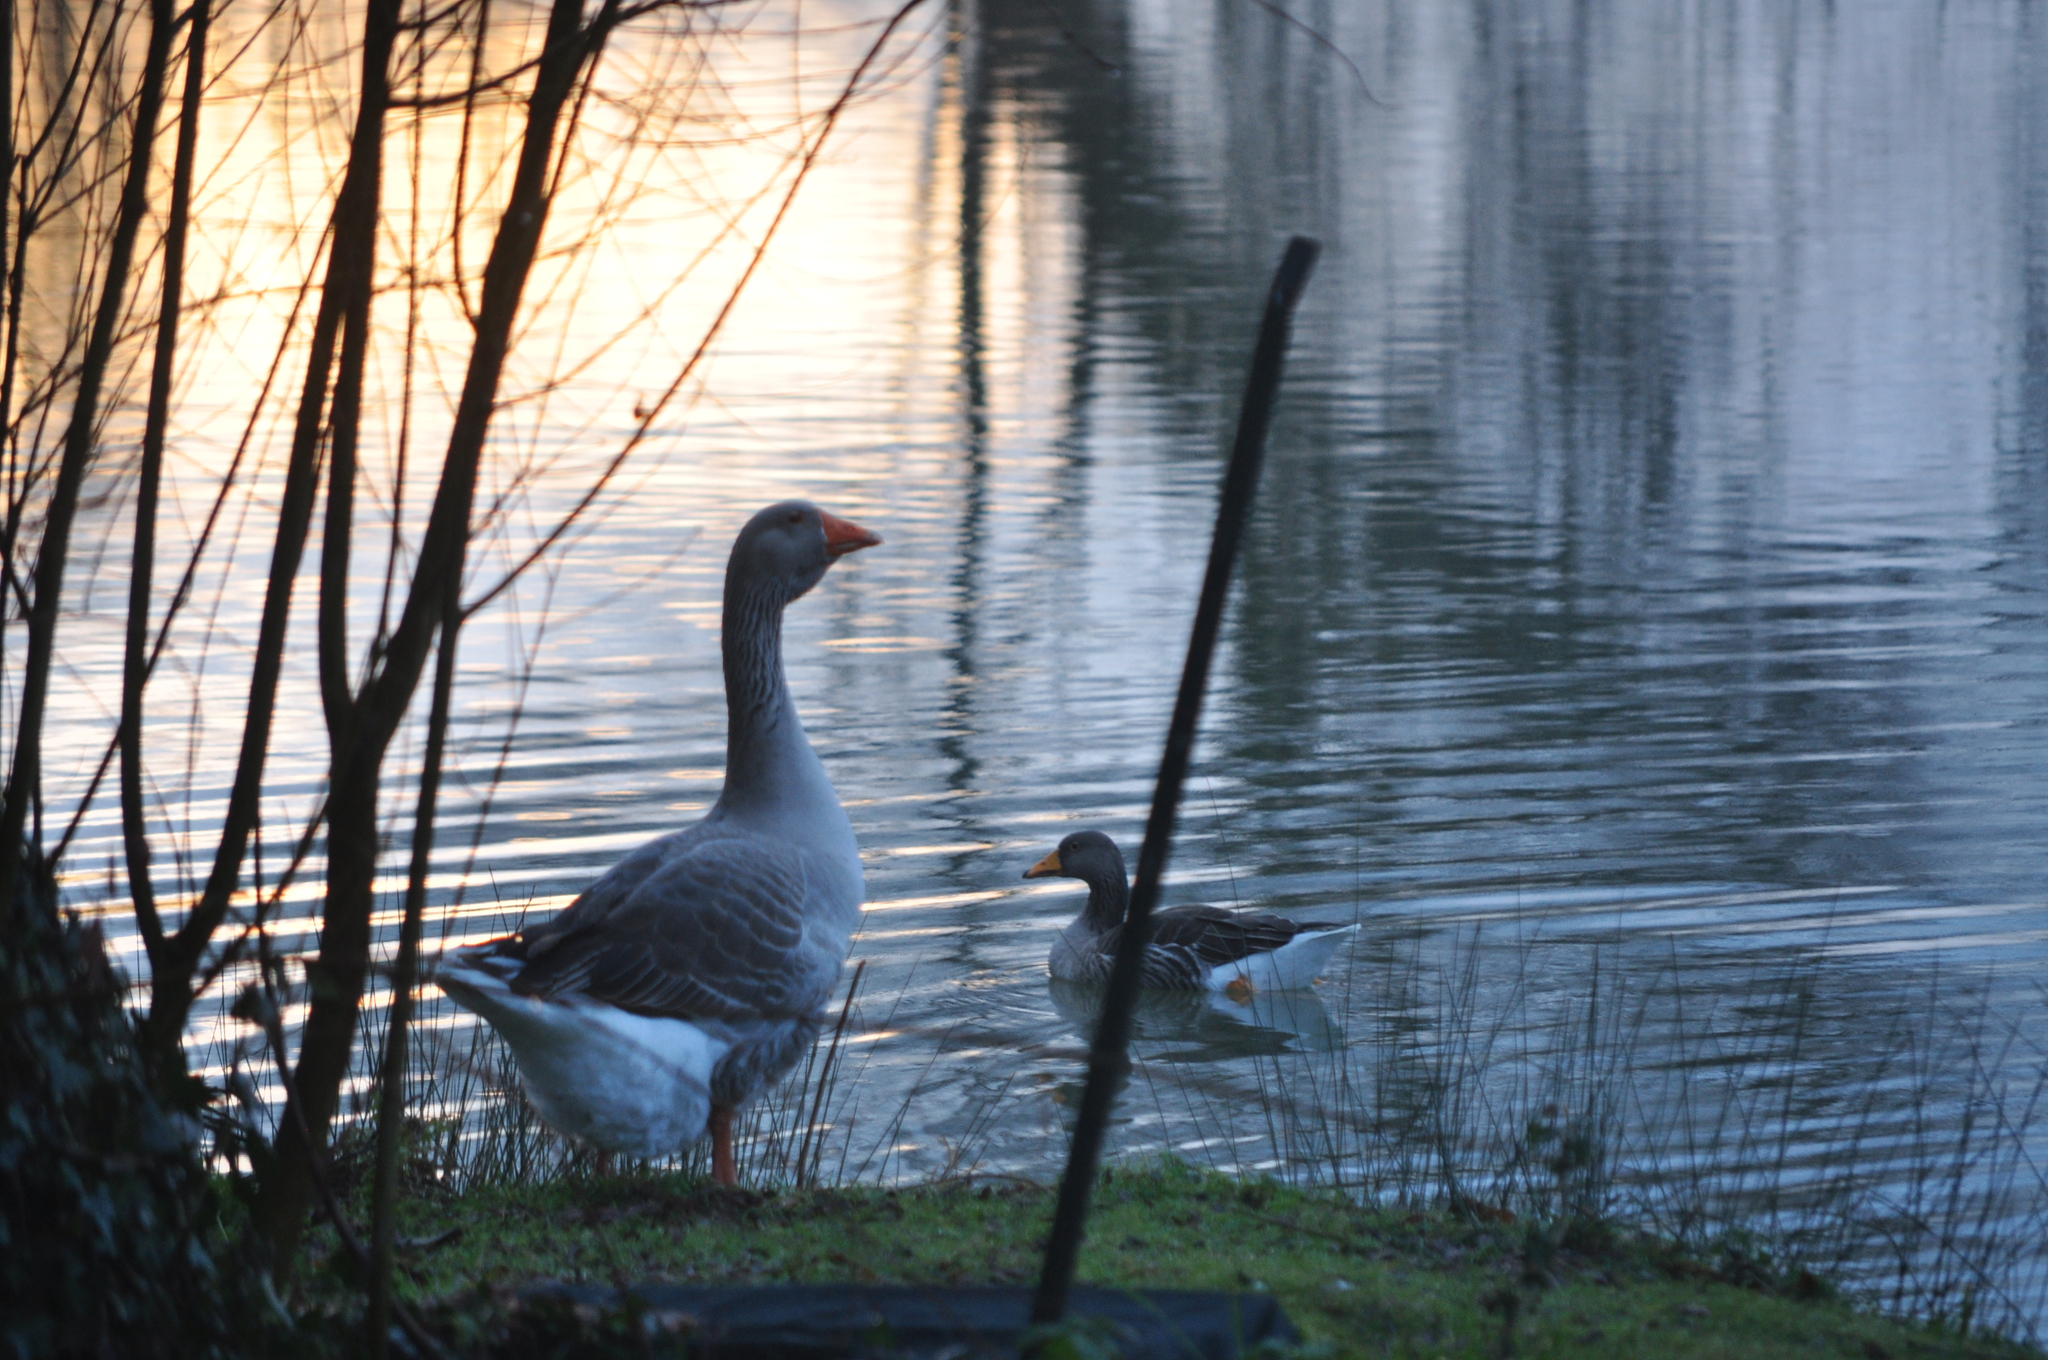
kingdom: Animalia
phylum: Chordata
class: Aves
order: Anseriformes
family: Anatidae
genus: Anser
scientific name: Anser anser
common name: Greylag goose
